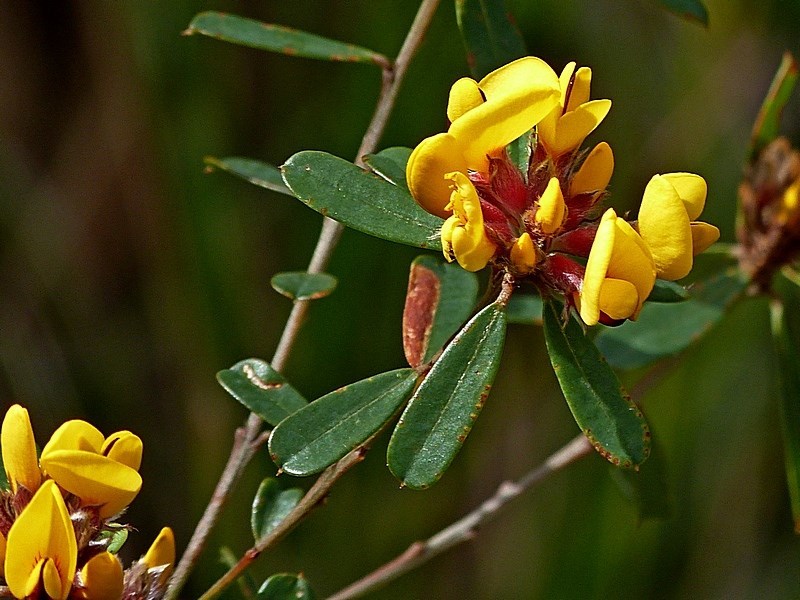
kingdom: Plantae
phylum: Tracheophyta
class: Magnoliopsida
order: Fabales
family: Fabaceae
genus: Pultenaea
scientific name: Pultenaea daphnoides
